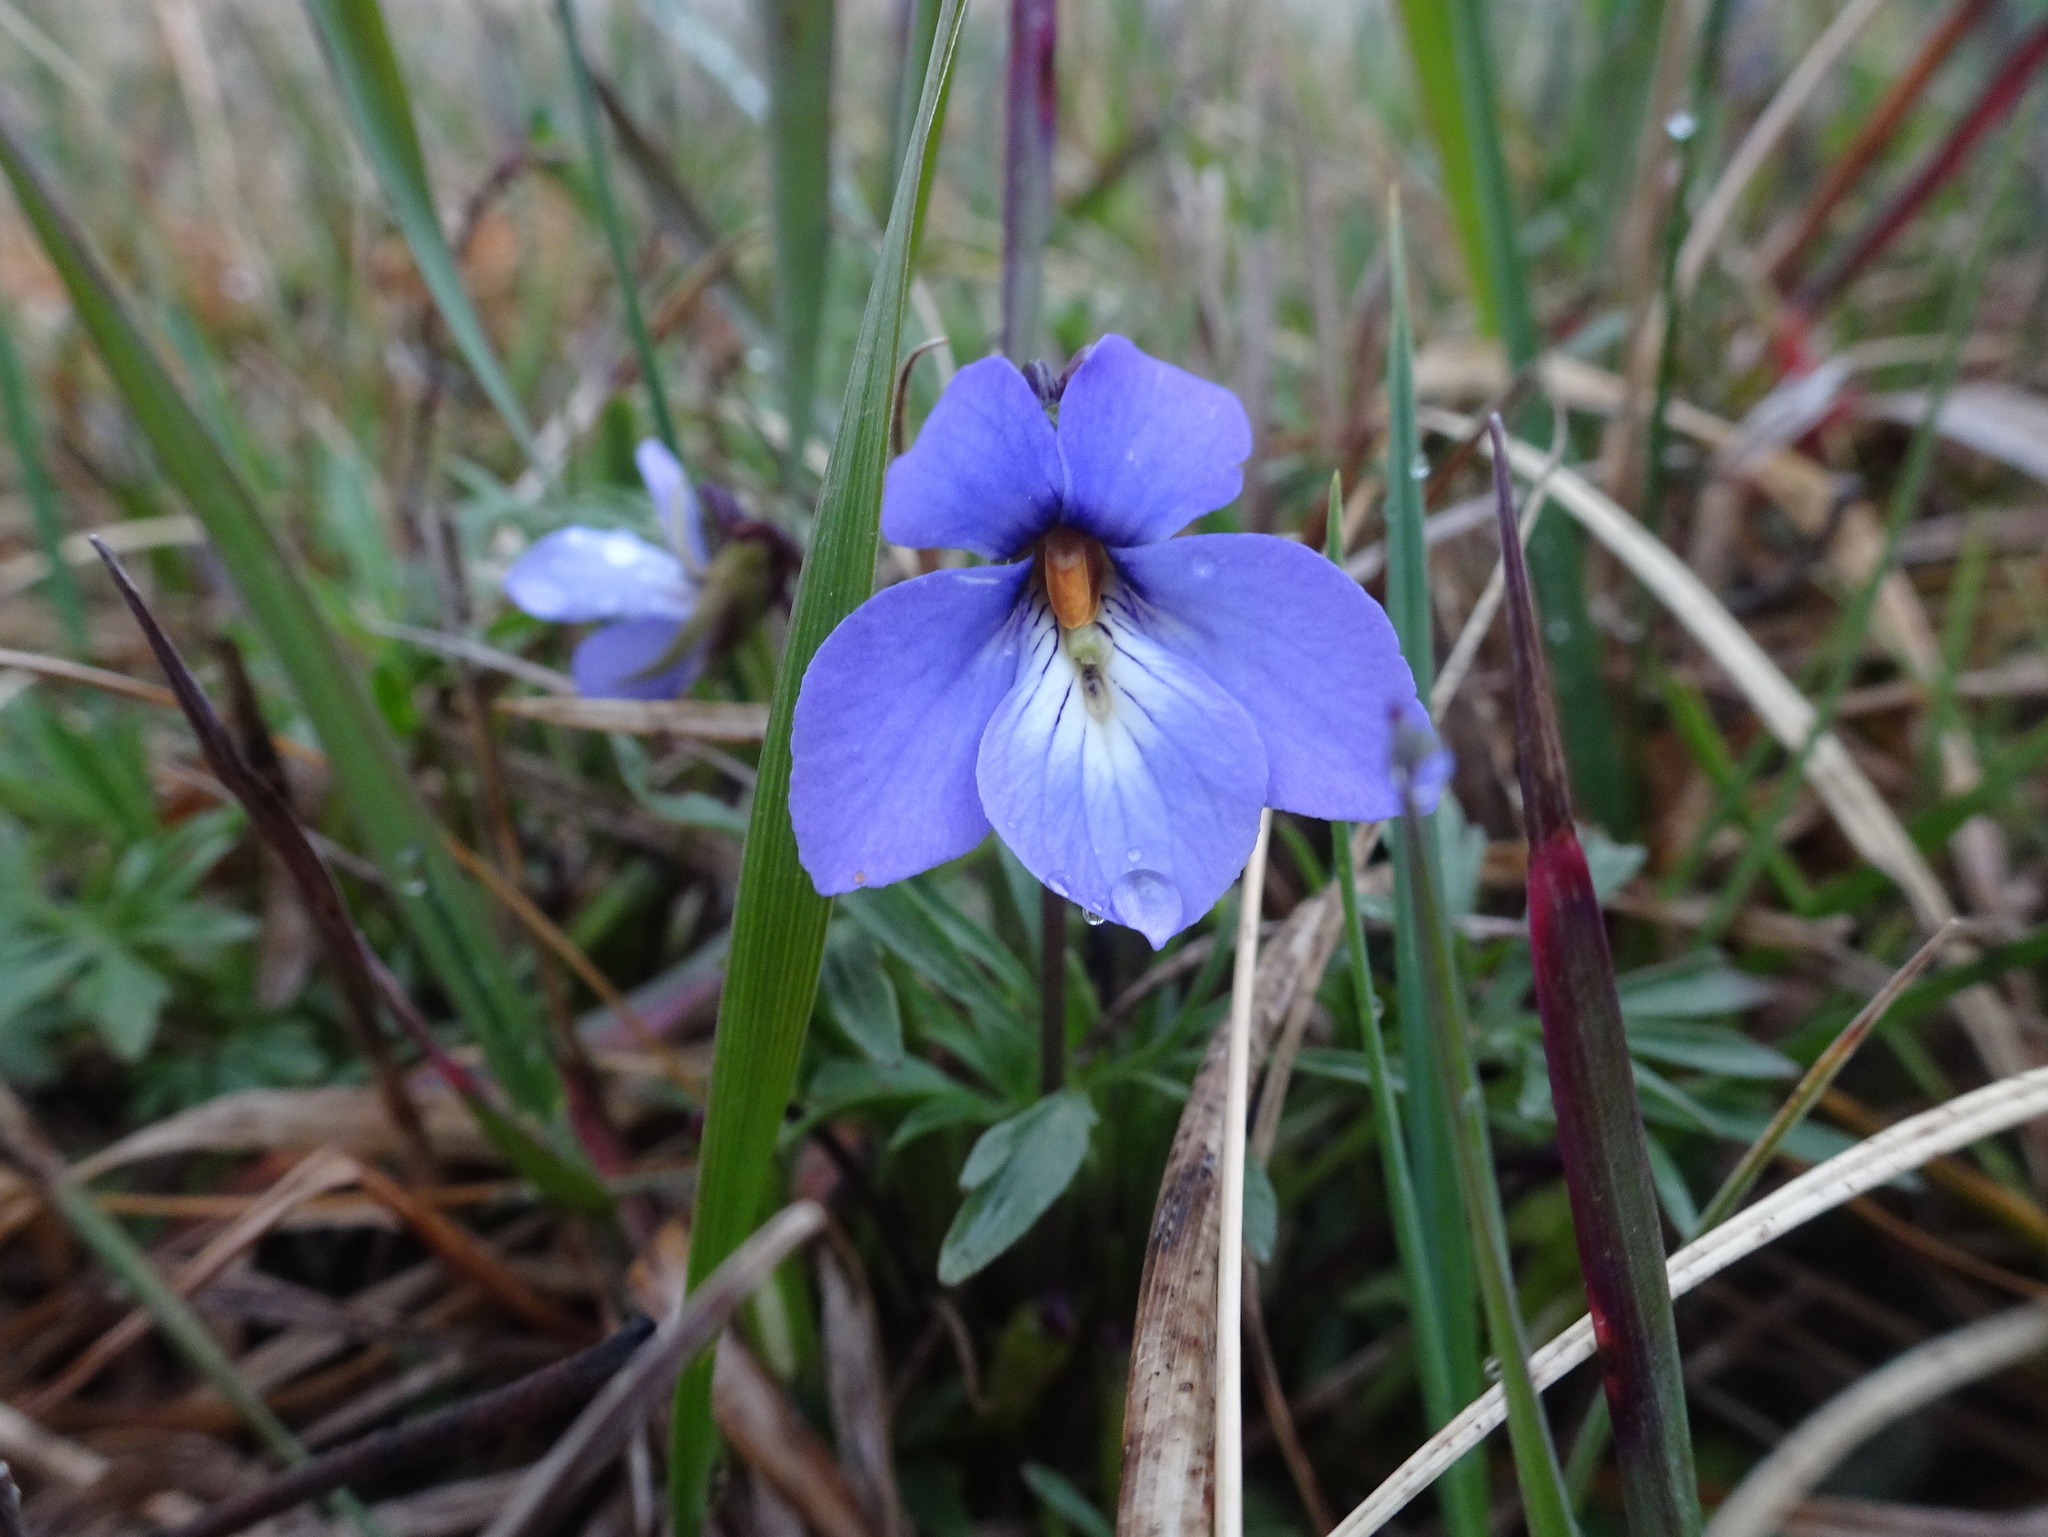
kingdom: Plantae
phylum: Tracheophyta
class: Magnoliopsida
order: Malpighiales
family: Violaceae
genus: Viola
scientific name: Viola pedata
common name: Pansy violet
